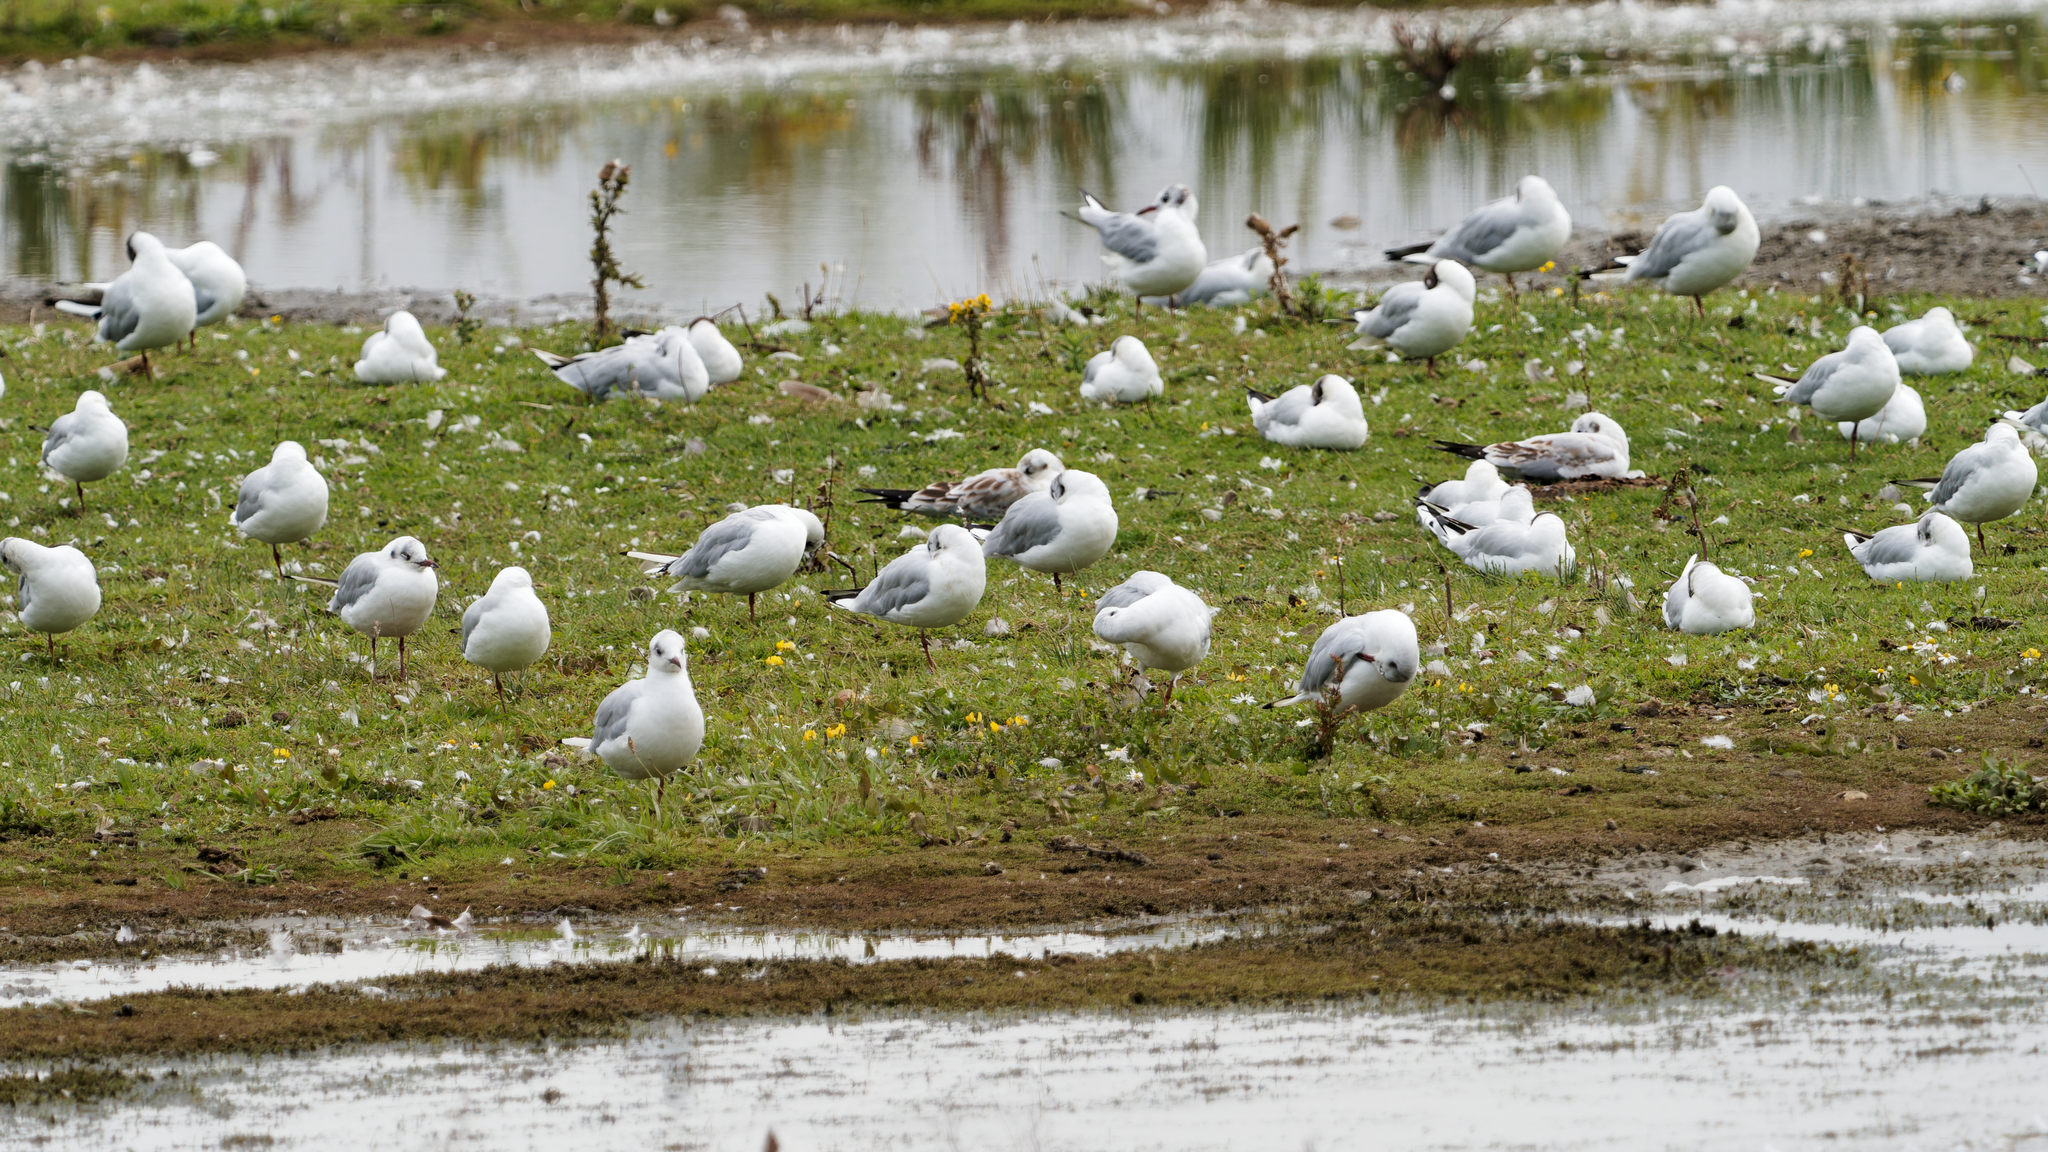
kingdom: Animalia
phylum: Chordata
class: Aves
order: Charadriiformes
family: Laridae
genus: Chroicocephalus
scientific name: Chroicocephalus ridibundus
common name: Black-headed gull
